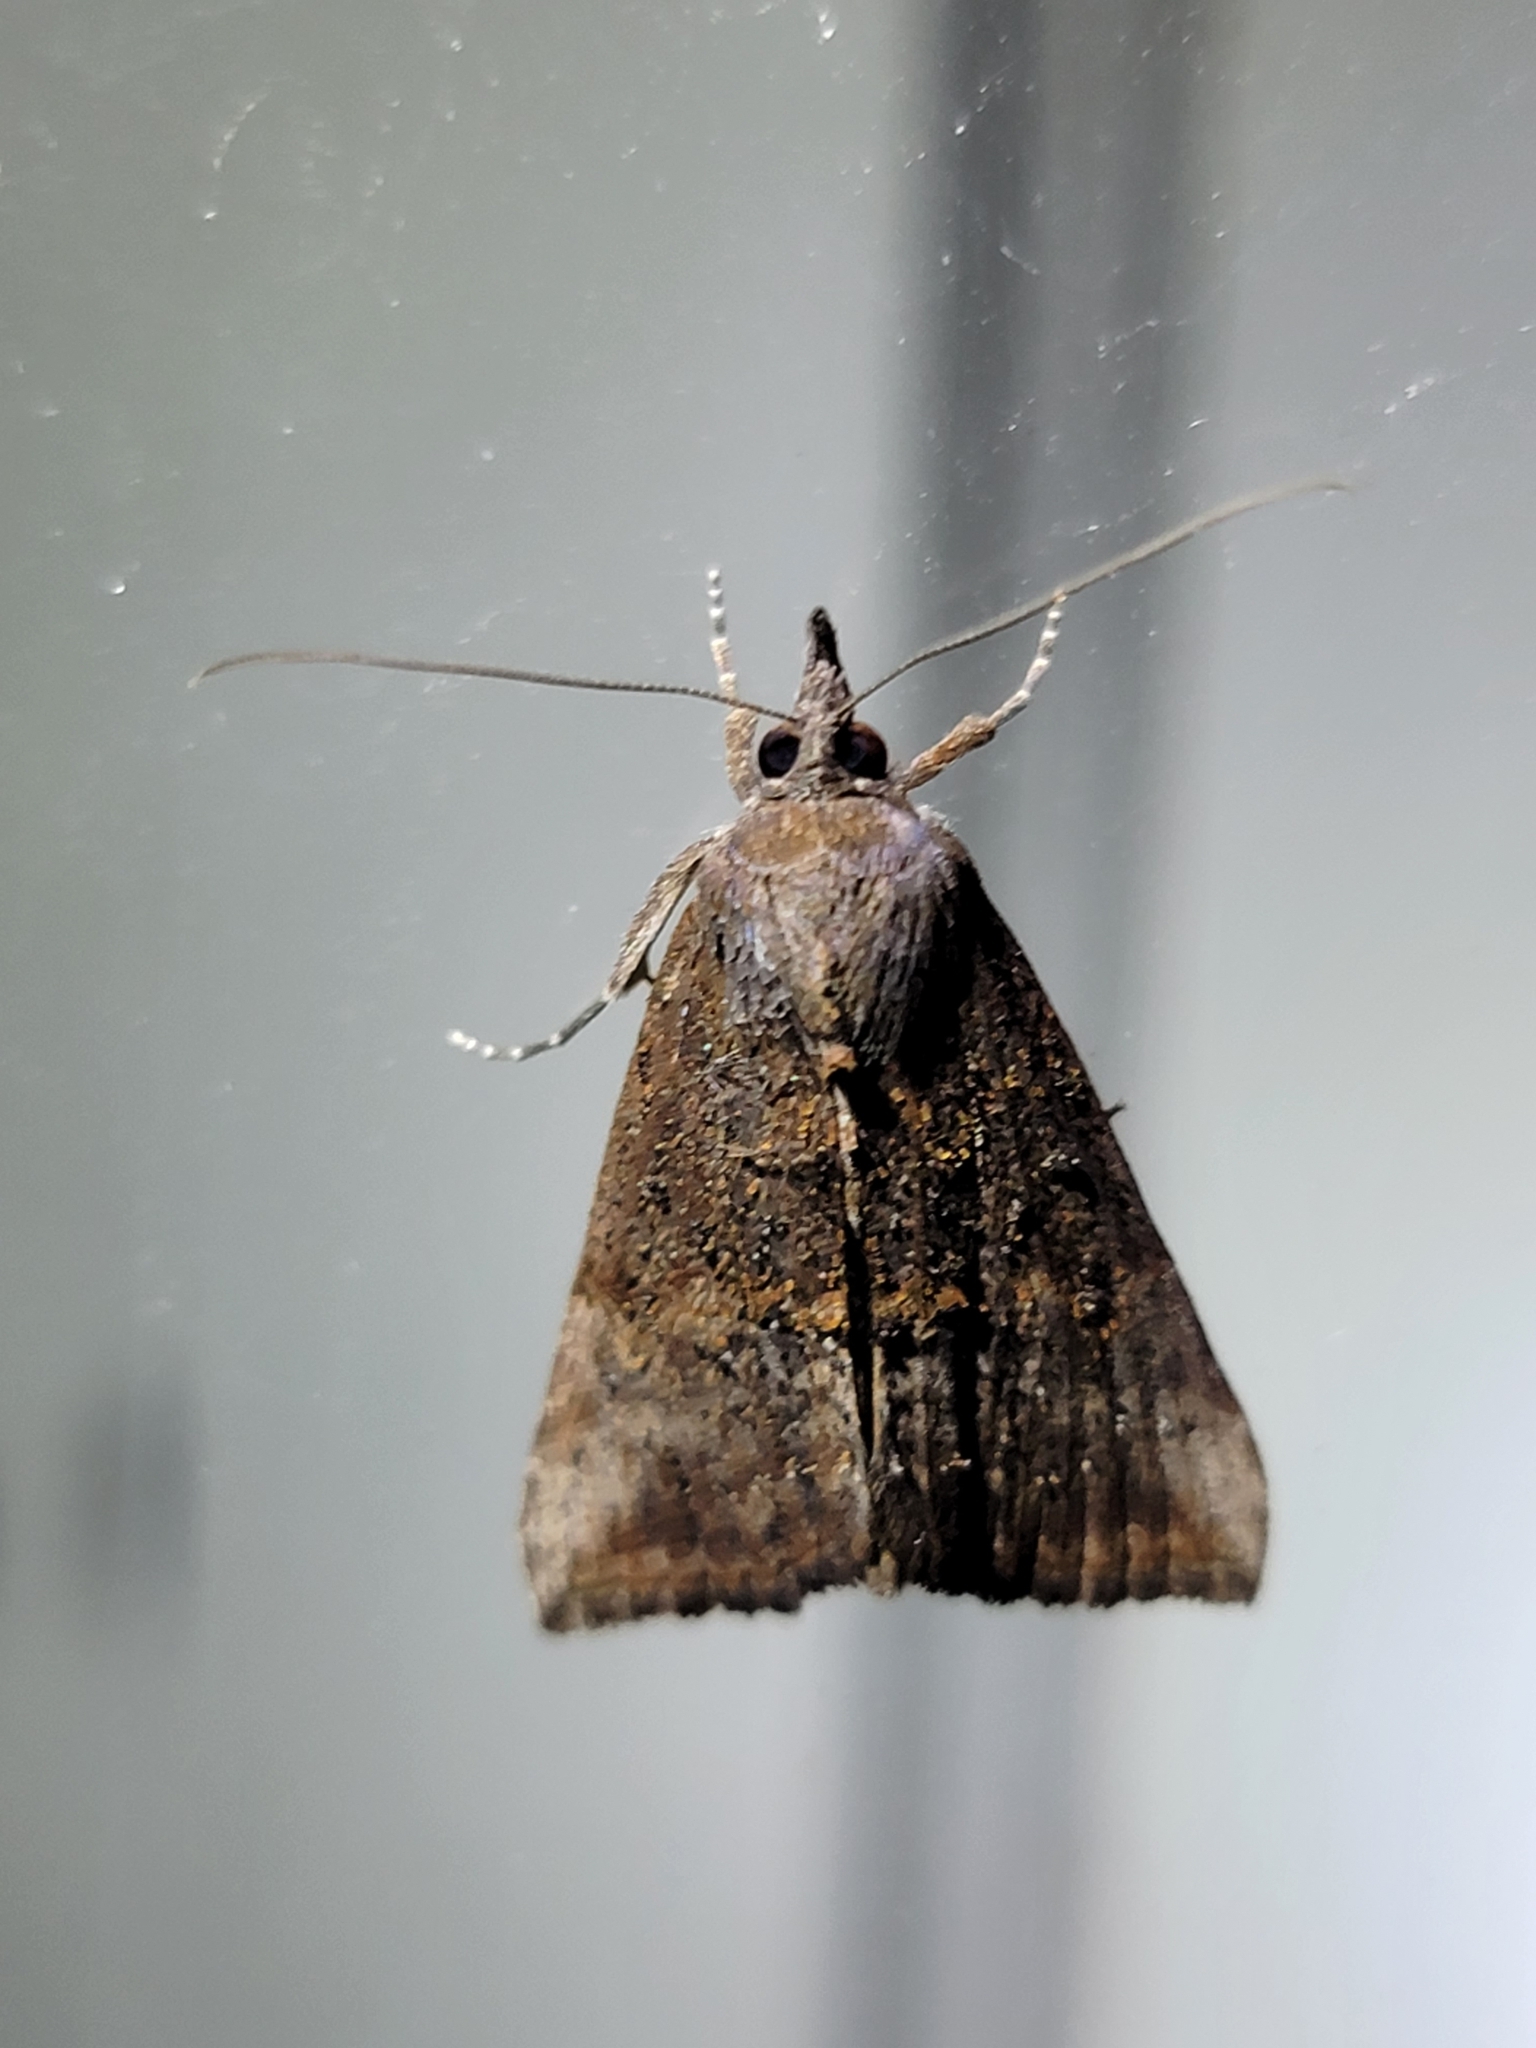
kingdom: Animalia
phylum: Arthropoda
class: Insecta
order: Lepidoptera
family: Erebidae
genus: Hypena
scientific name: Hypena scabra
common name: Green cloverworm
